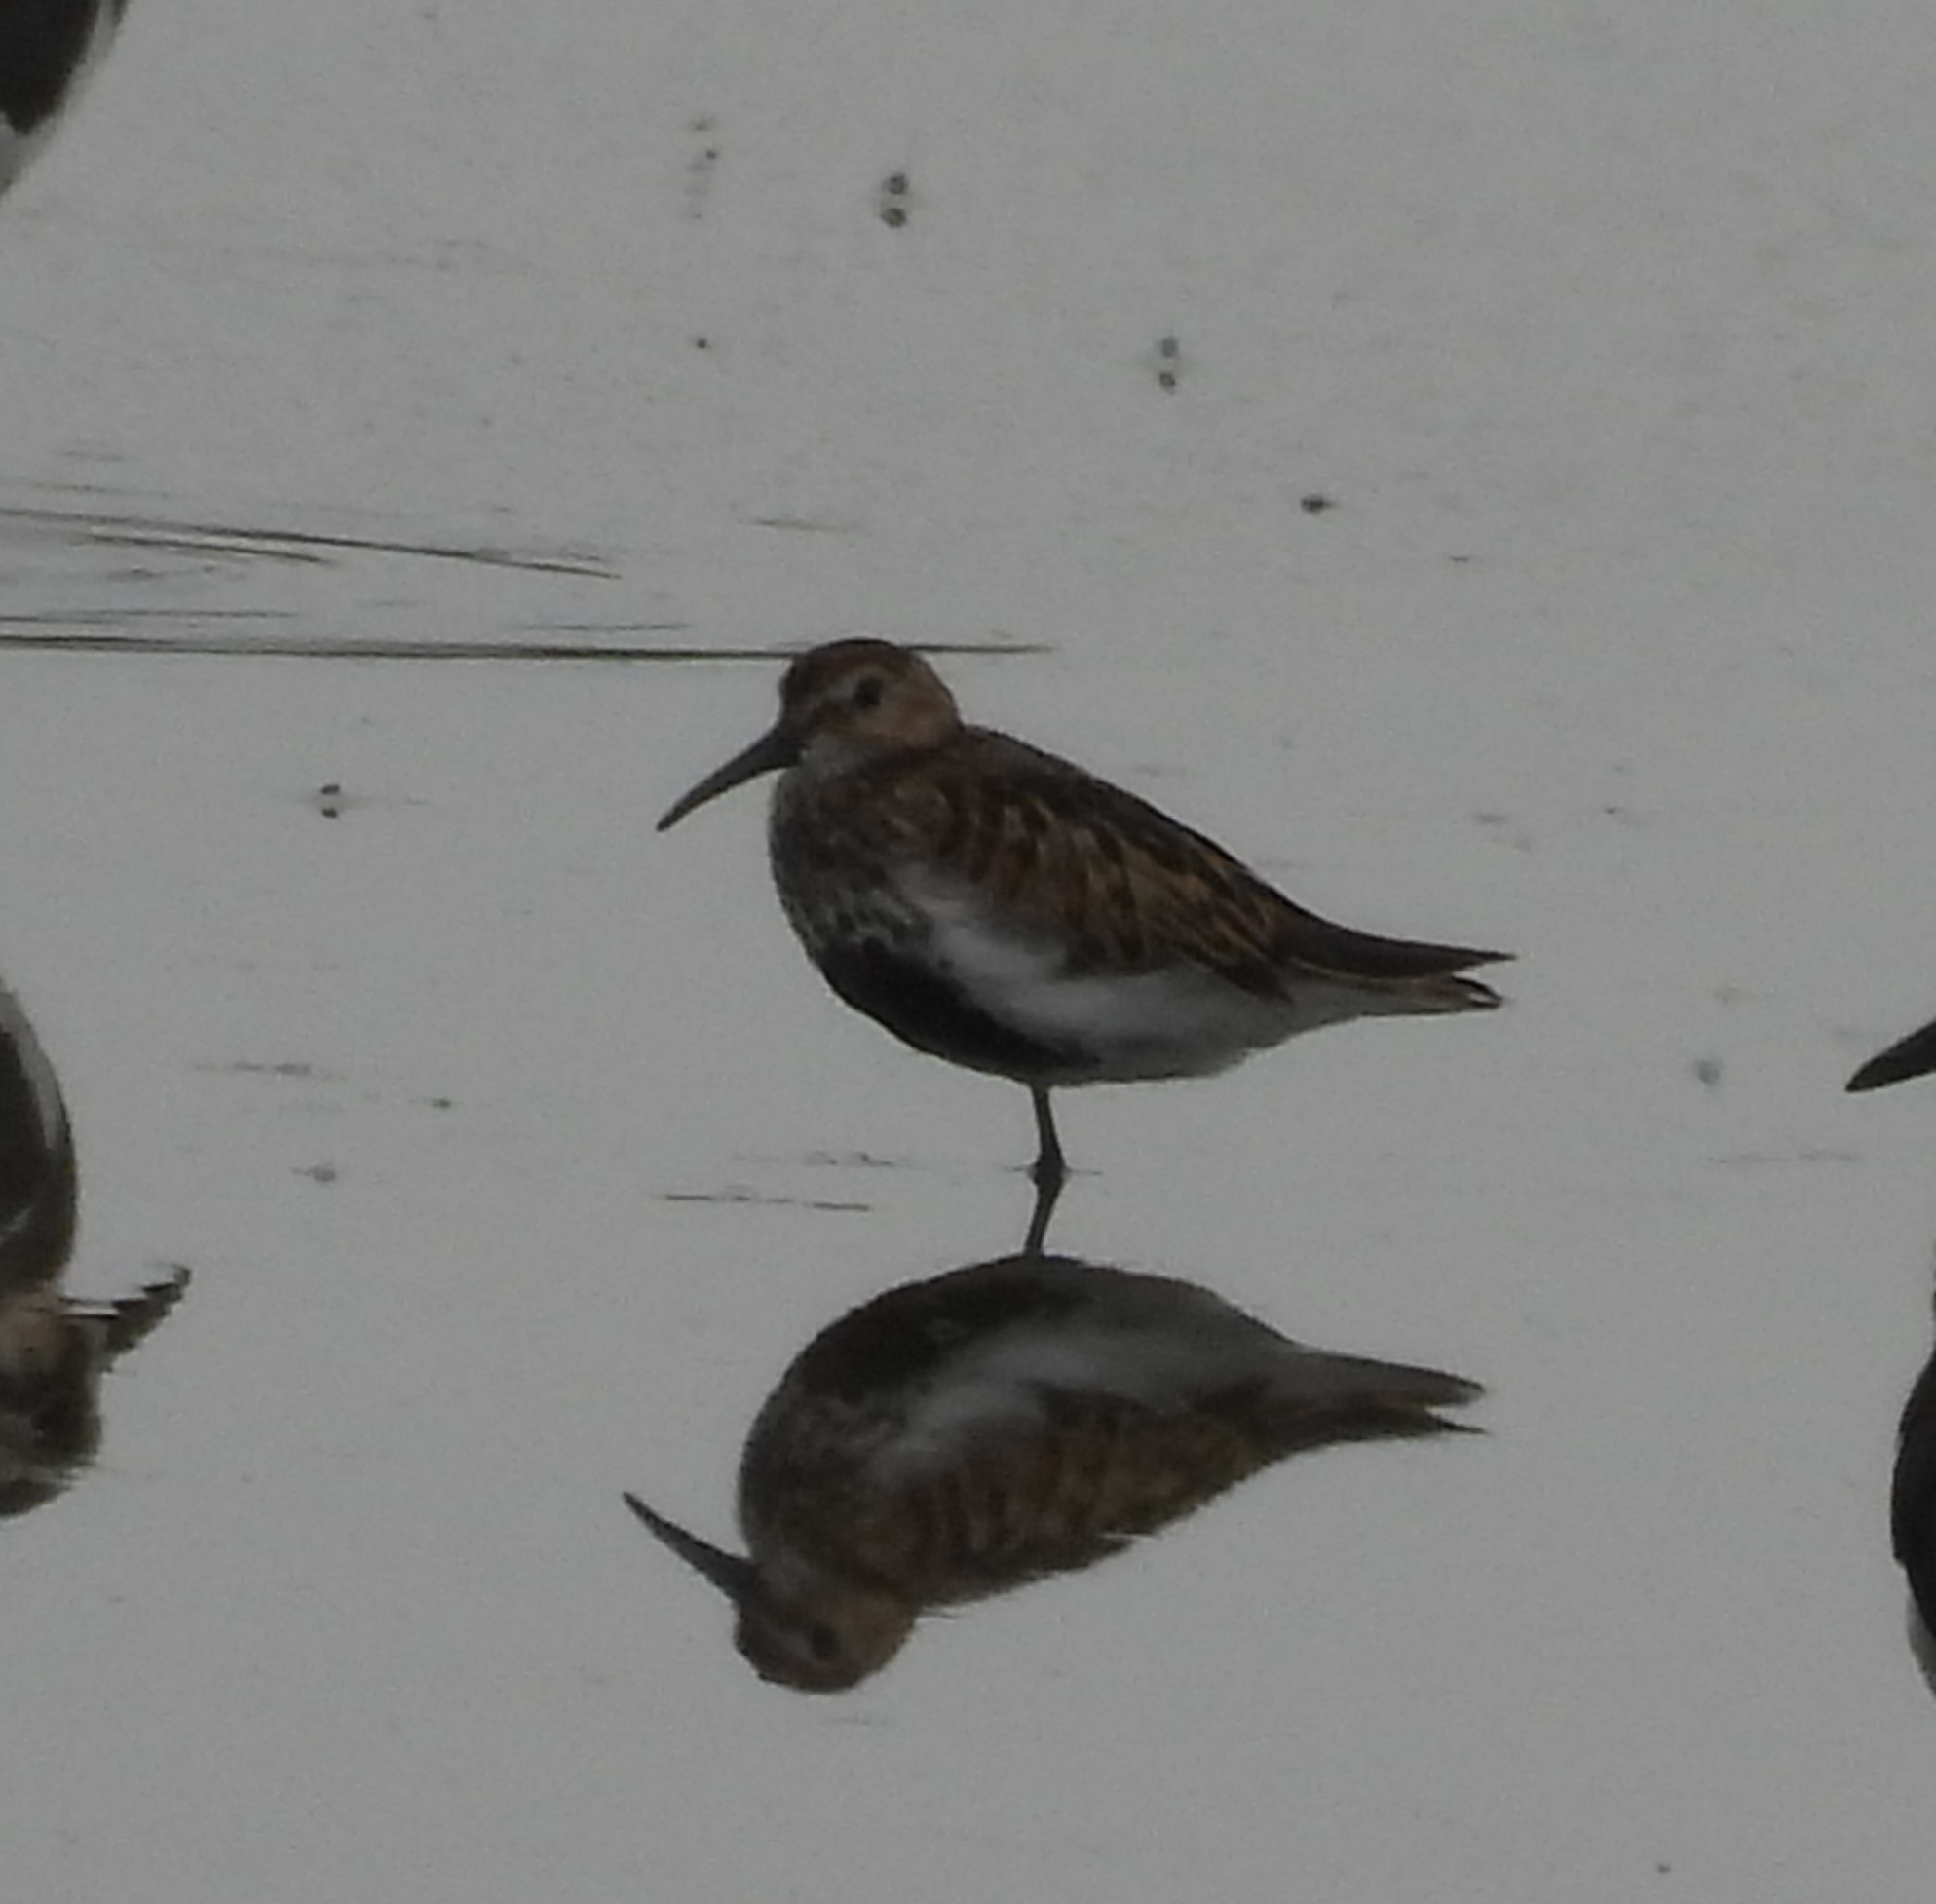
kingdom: Animalia
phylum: Chordata
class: Aves
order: Charadriiformes
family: Scolopacidae
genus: Calidris
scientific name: Calidris alpina
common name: Dunlin
